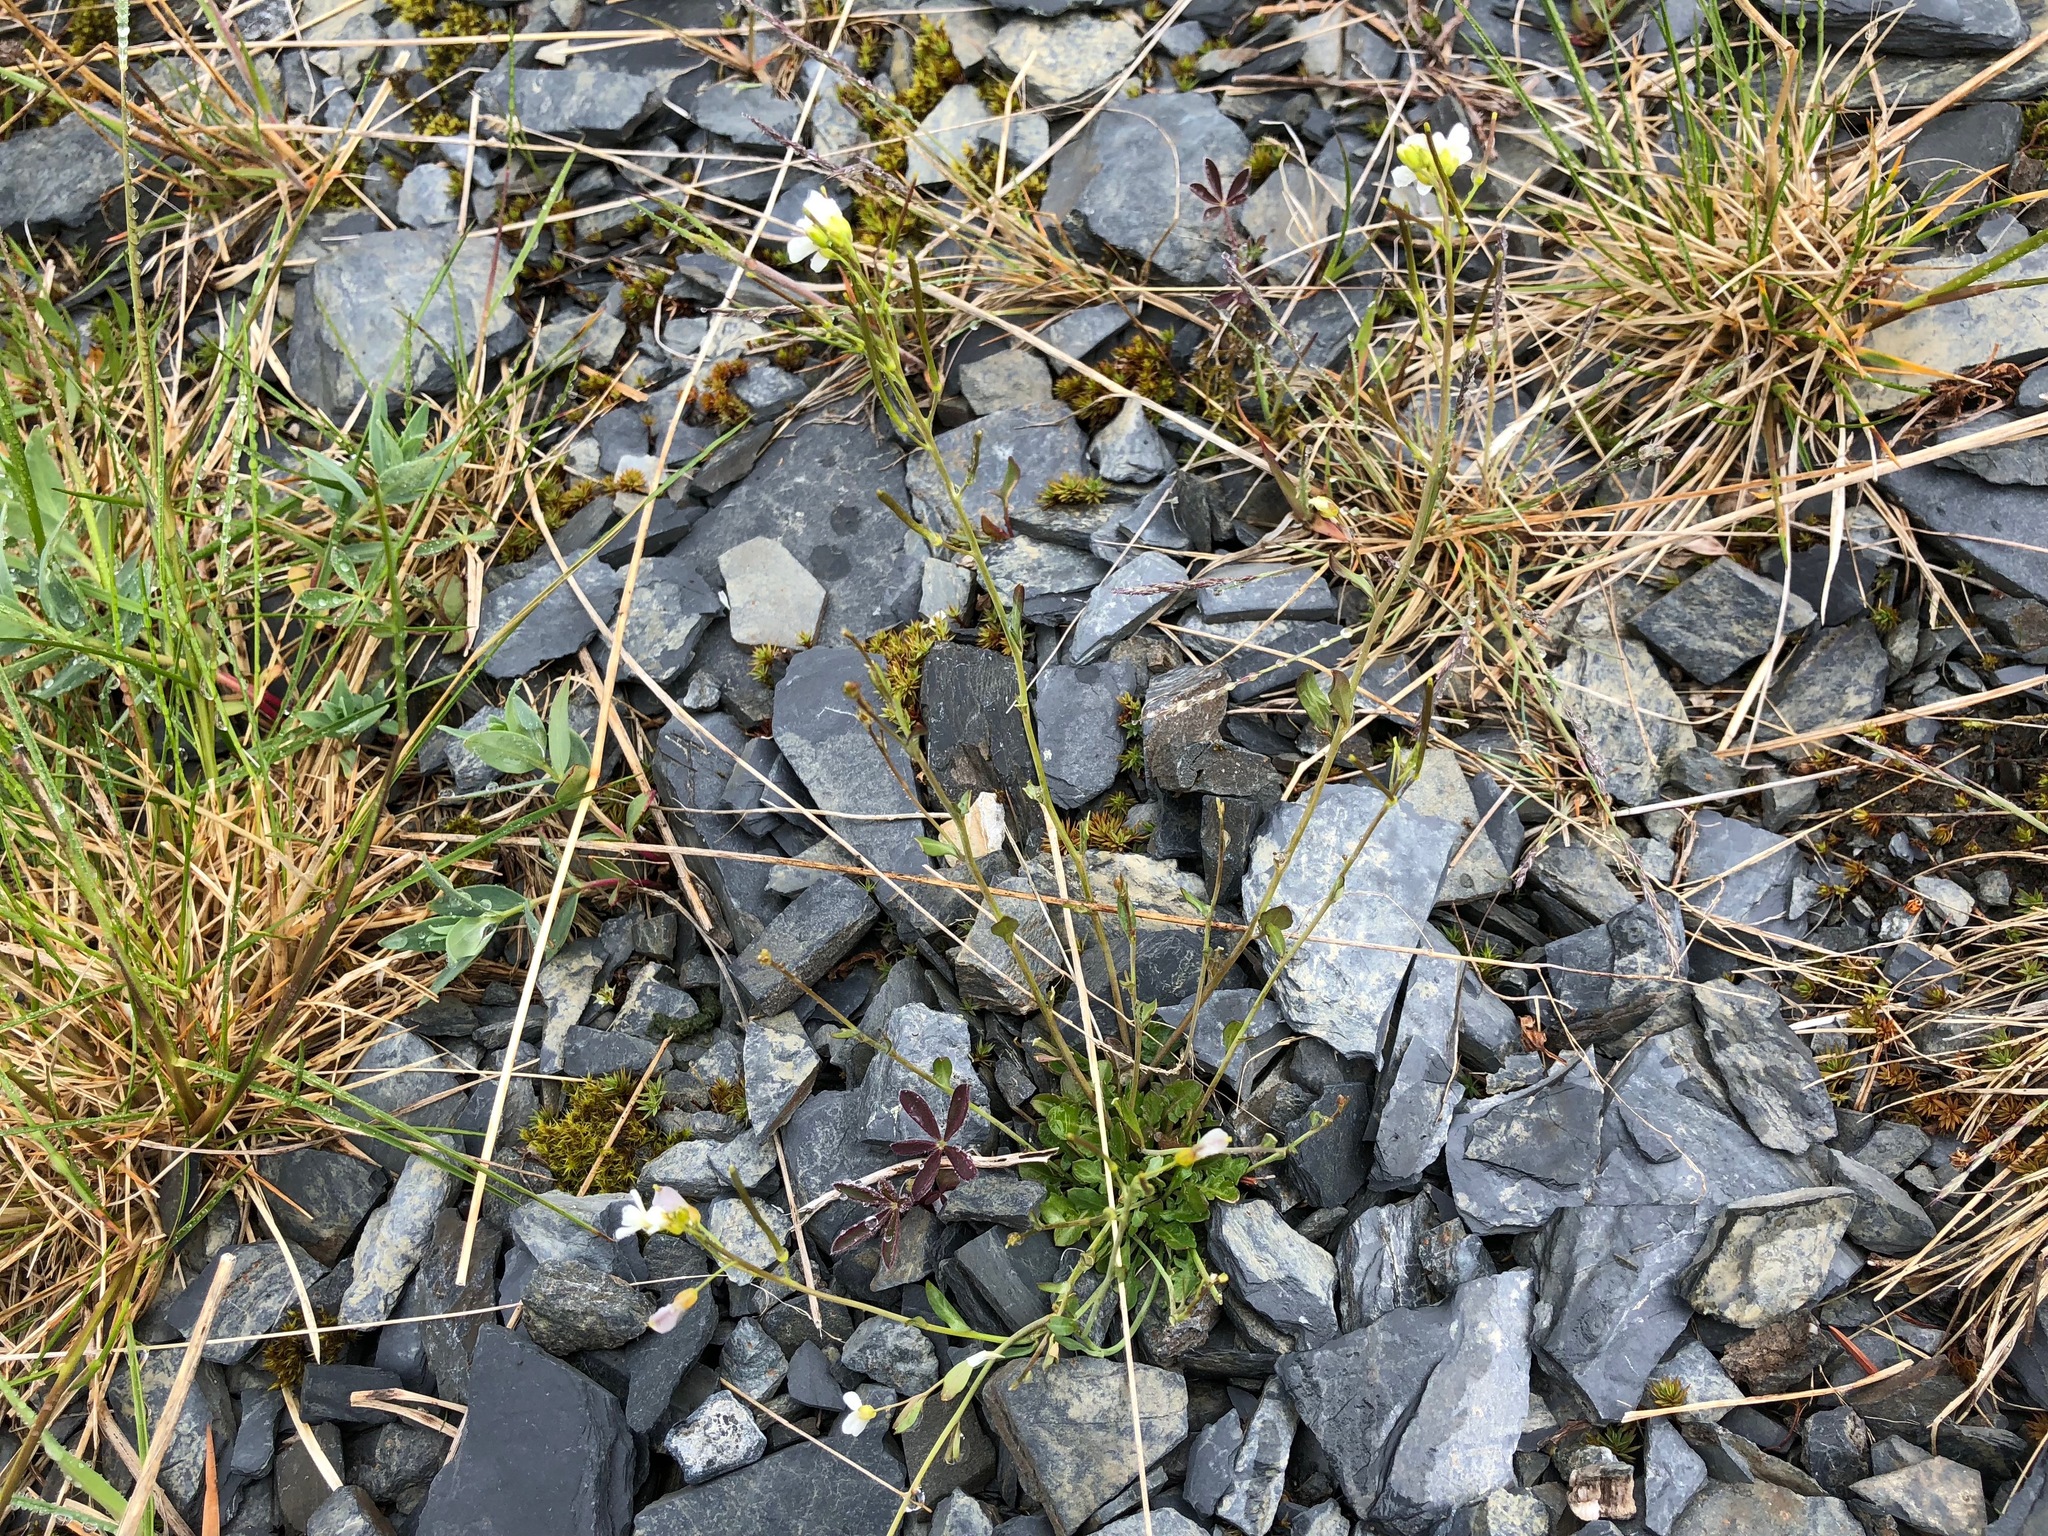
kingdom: Plantae
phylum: Tracheophyta
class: Magnoliopsida
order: Brassicales
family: Brassicaceae
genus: Arabidopsis
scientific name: Arabidopsis lyrata
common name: Lyrate rockcress
